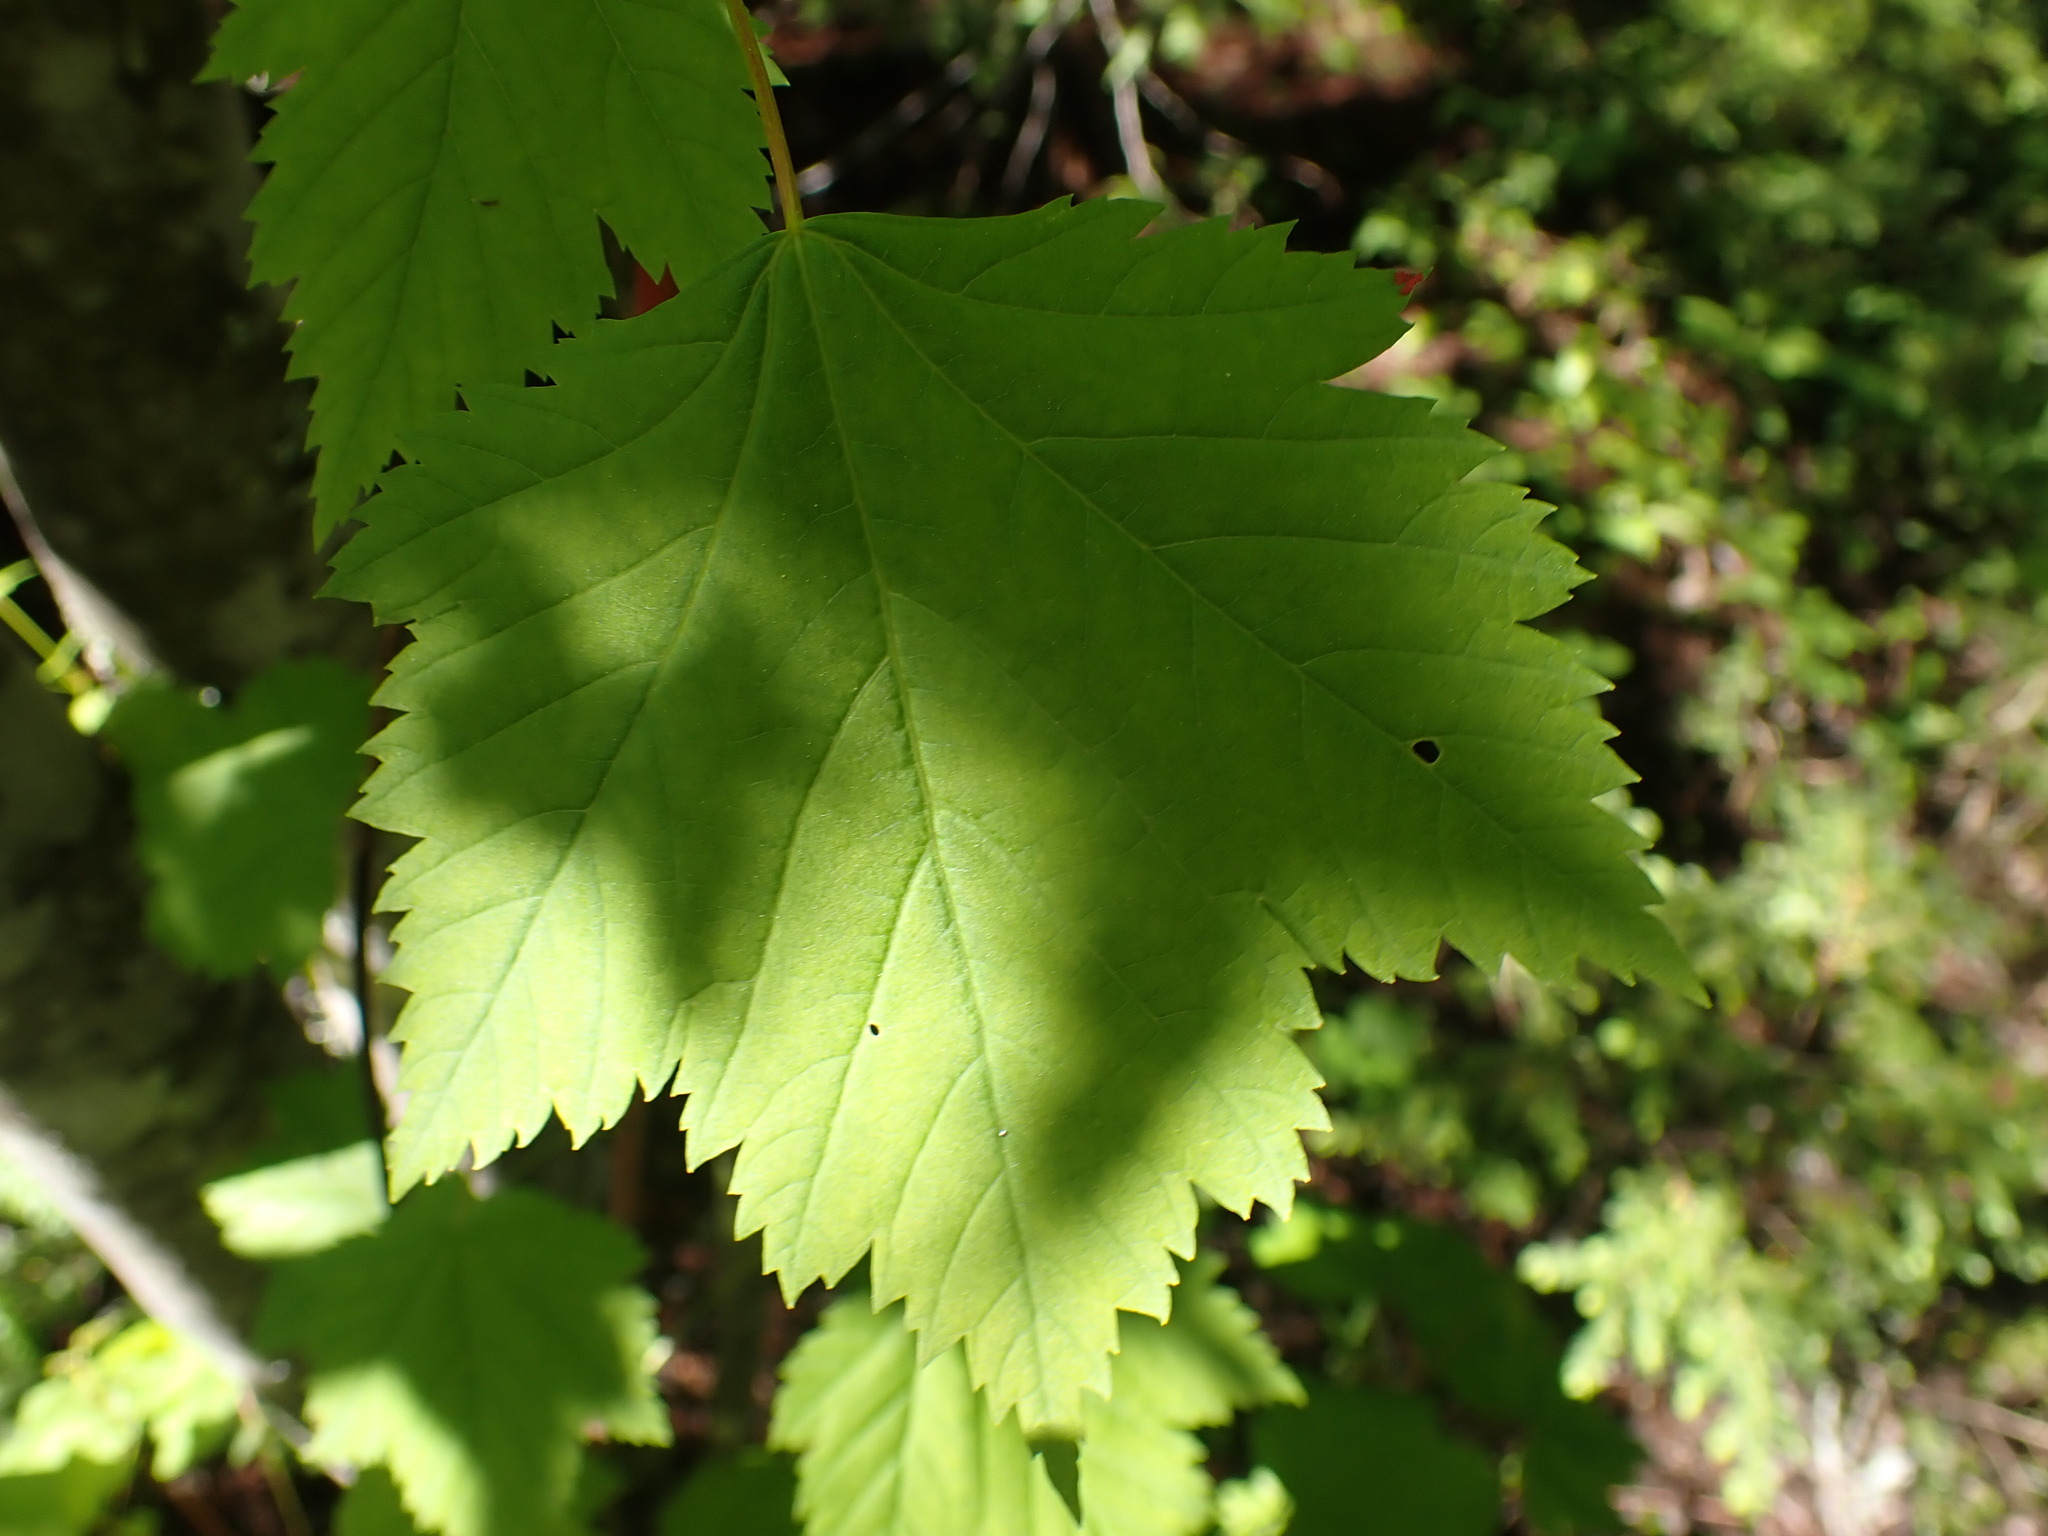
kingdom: Plantae
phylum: Tracheophyta
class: Magnoliopsida
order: Sapindales
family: Sapindaceae
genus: Acer
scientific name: Acer glabrum
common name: Rocky mountain maple
